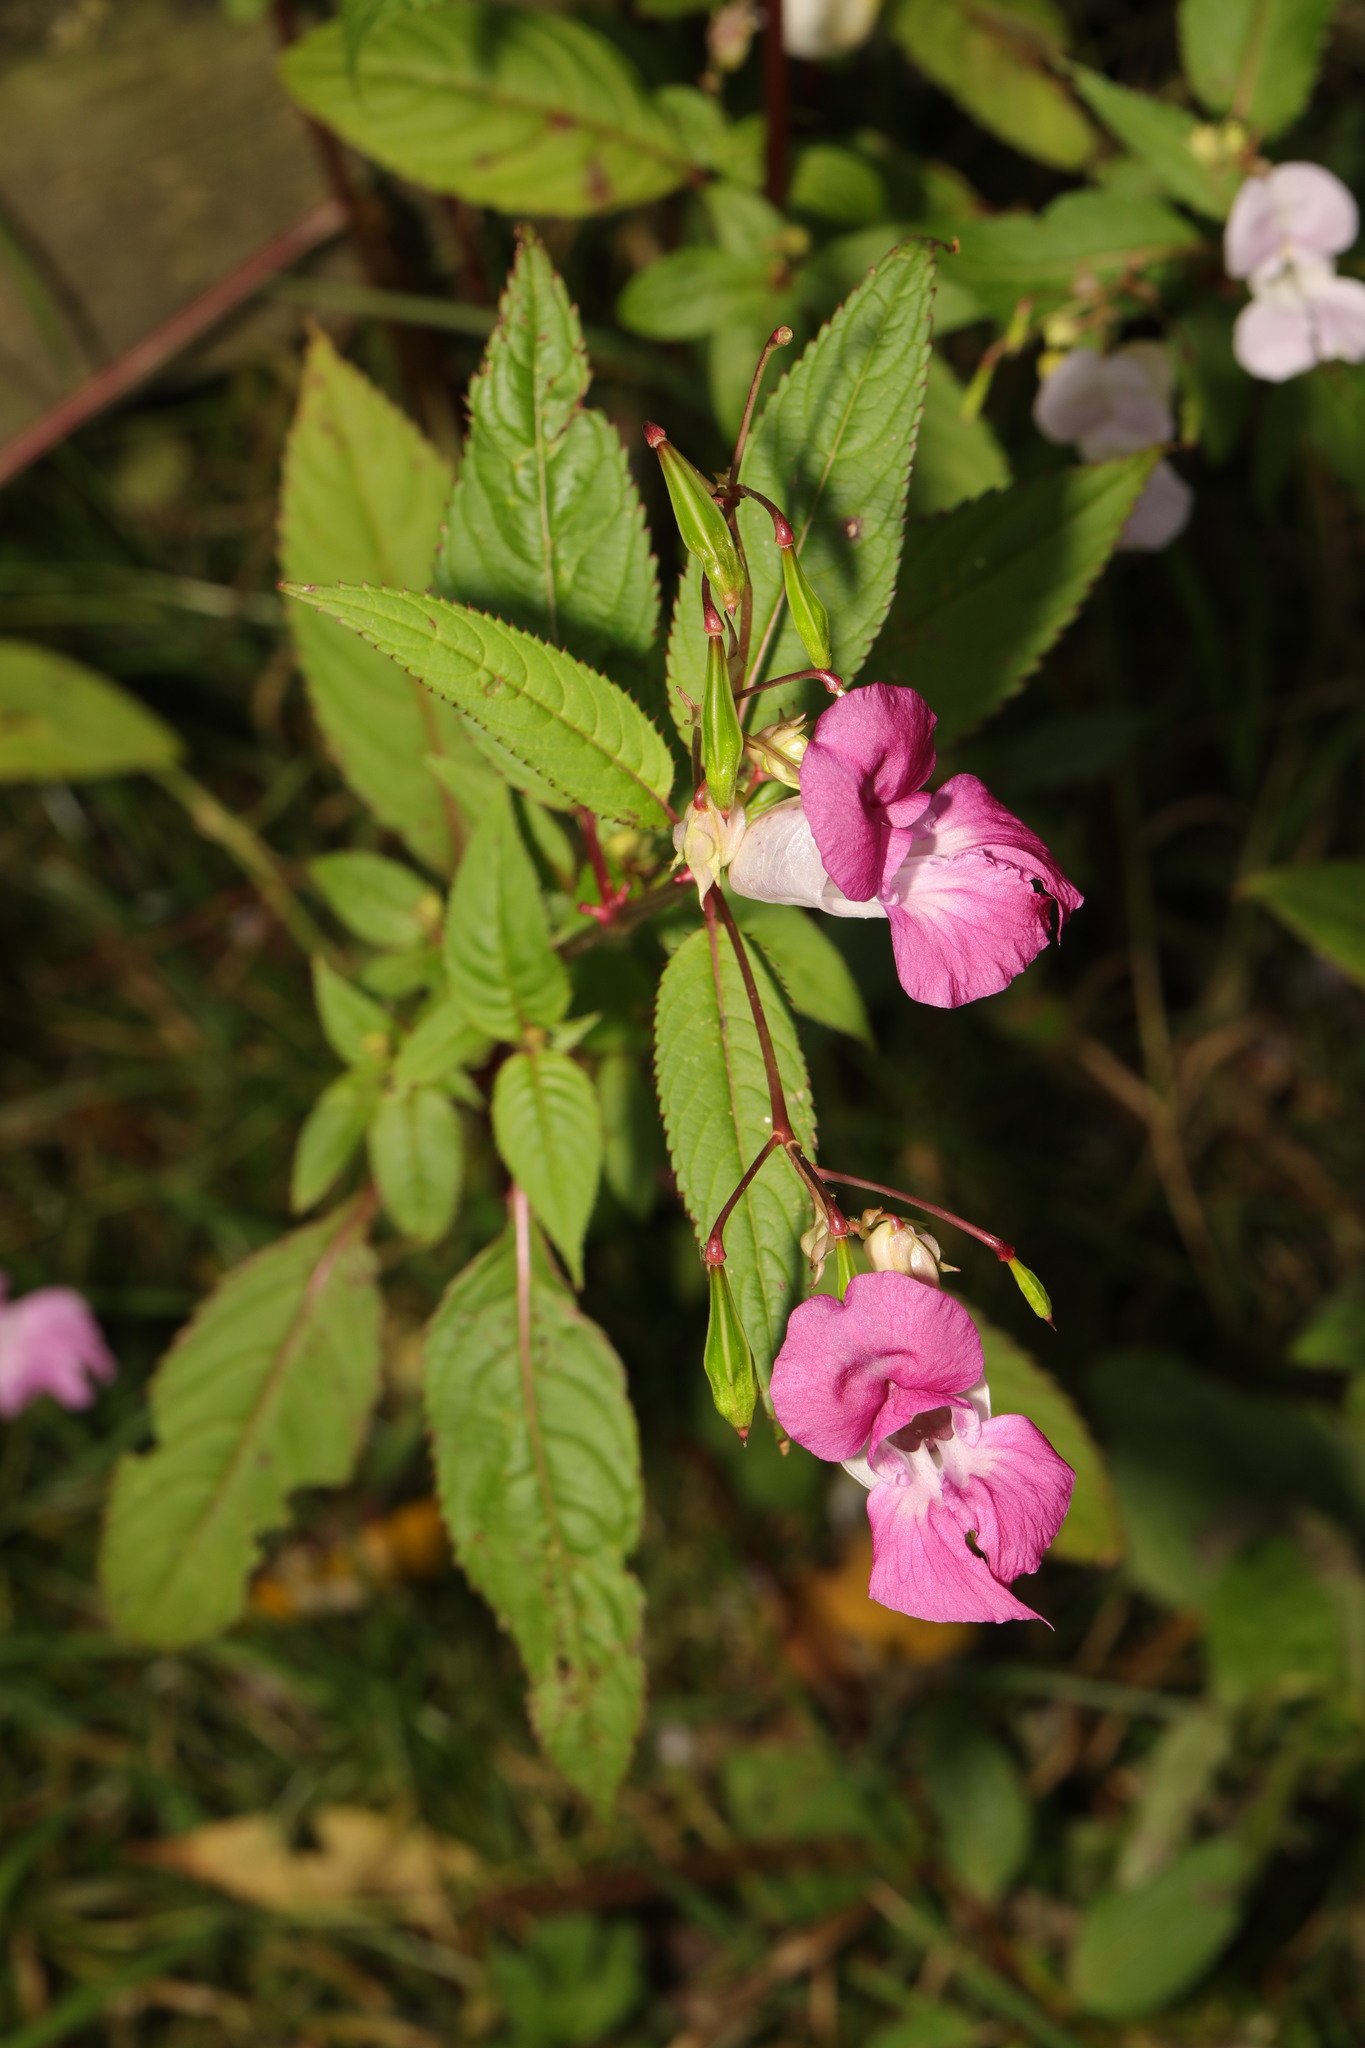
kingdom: Plantae
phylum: Tracheophyta
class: Magnoliopsida
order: Ericales
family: Balsaminaceae
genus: Impatiens
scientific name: Impatiens glandulifera
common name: Himalayan balsam
